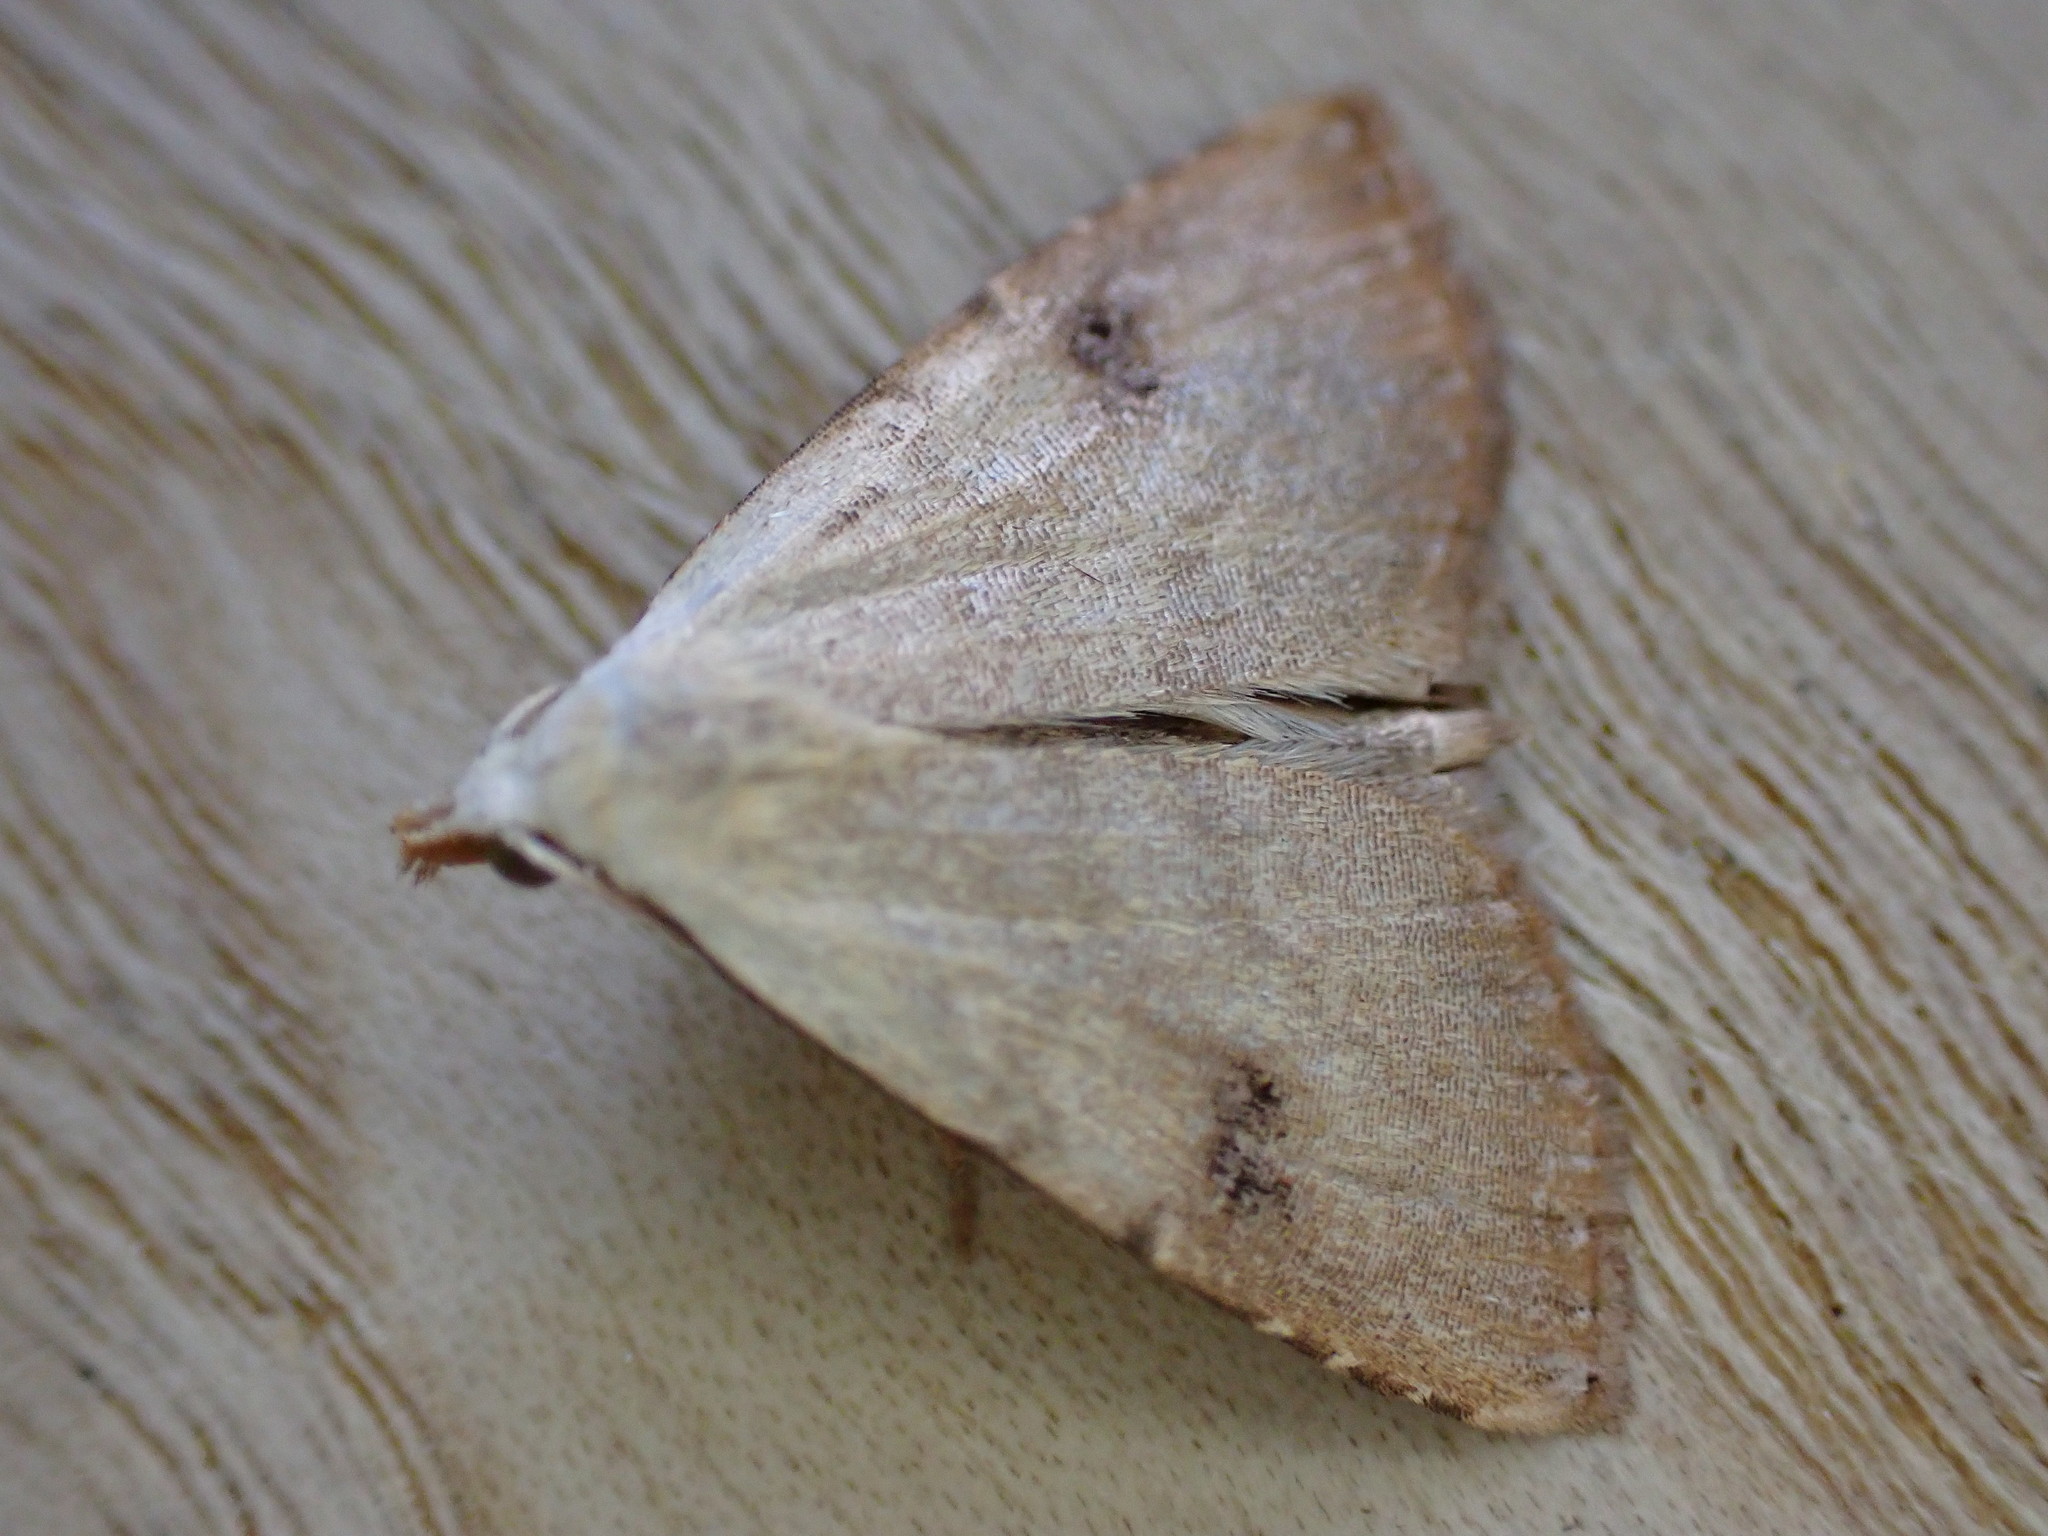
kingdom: Animalia
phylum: Arthropoda
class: Insecta
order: Lepidoptera
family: Erebidae
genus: Rivula
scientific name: Rivula sericealis
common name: Straw dot
